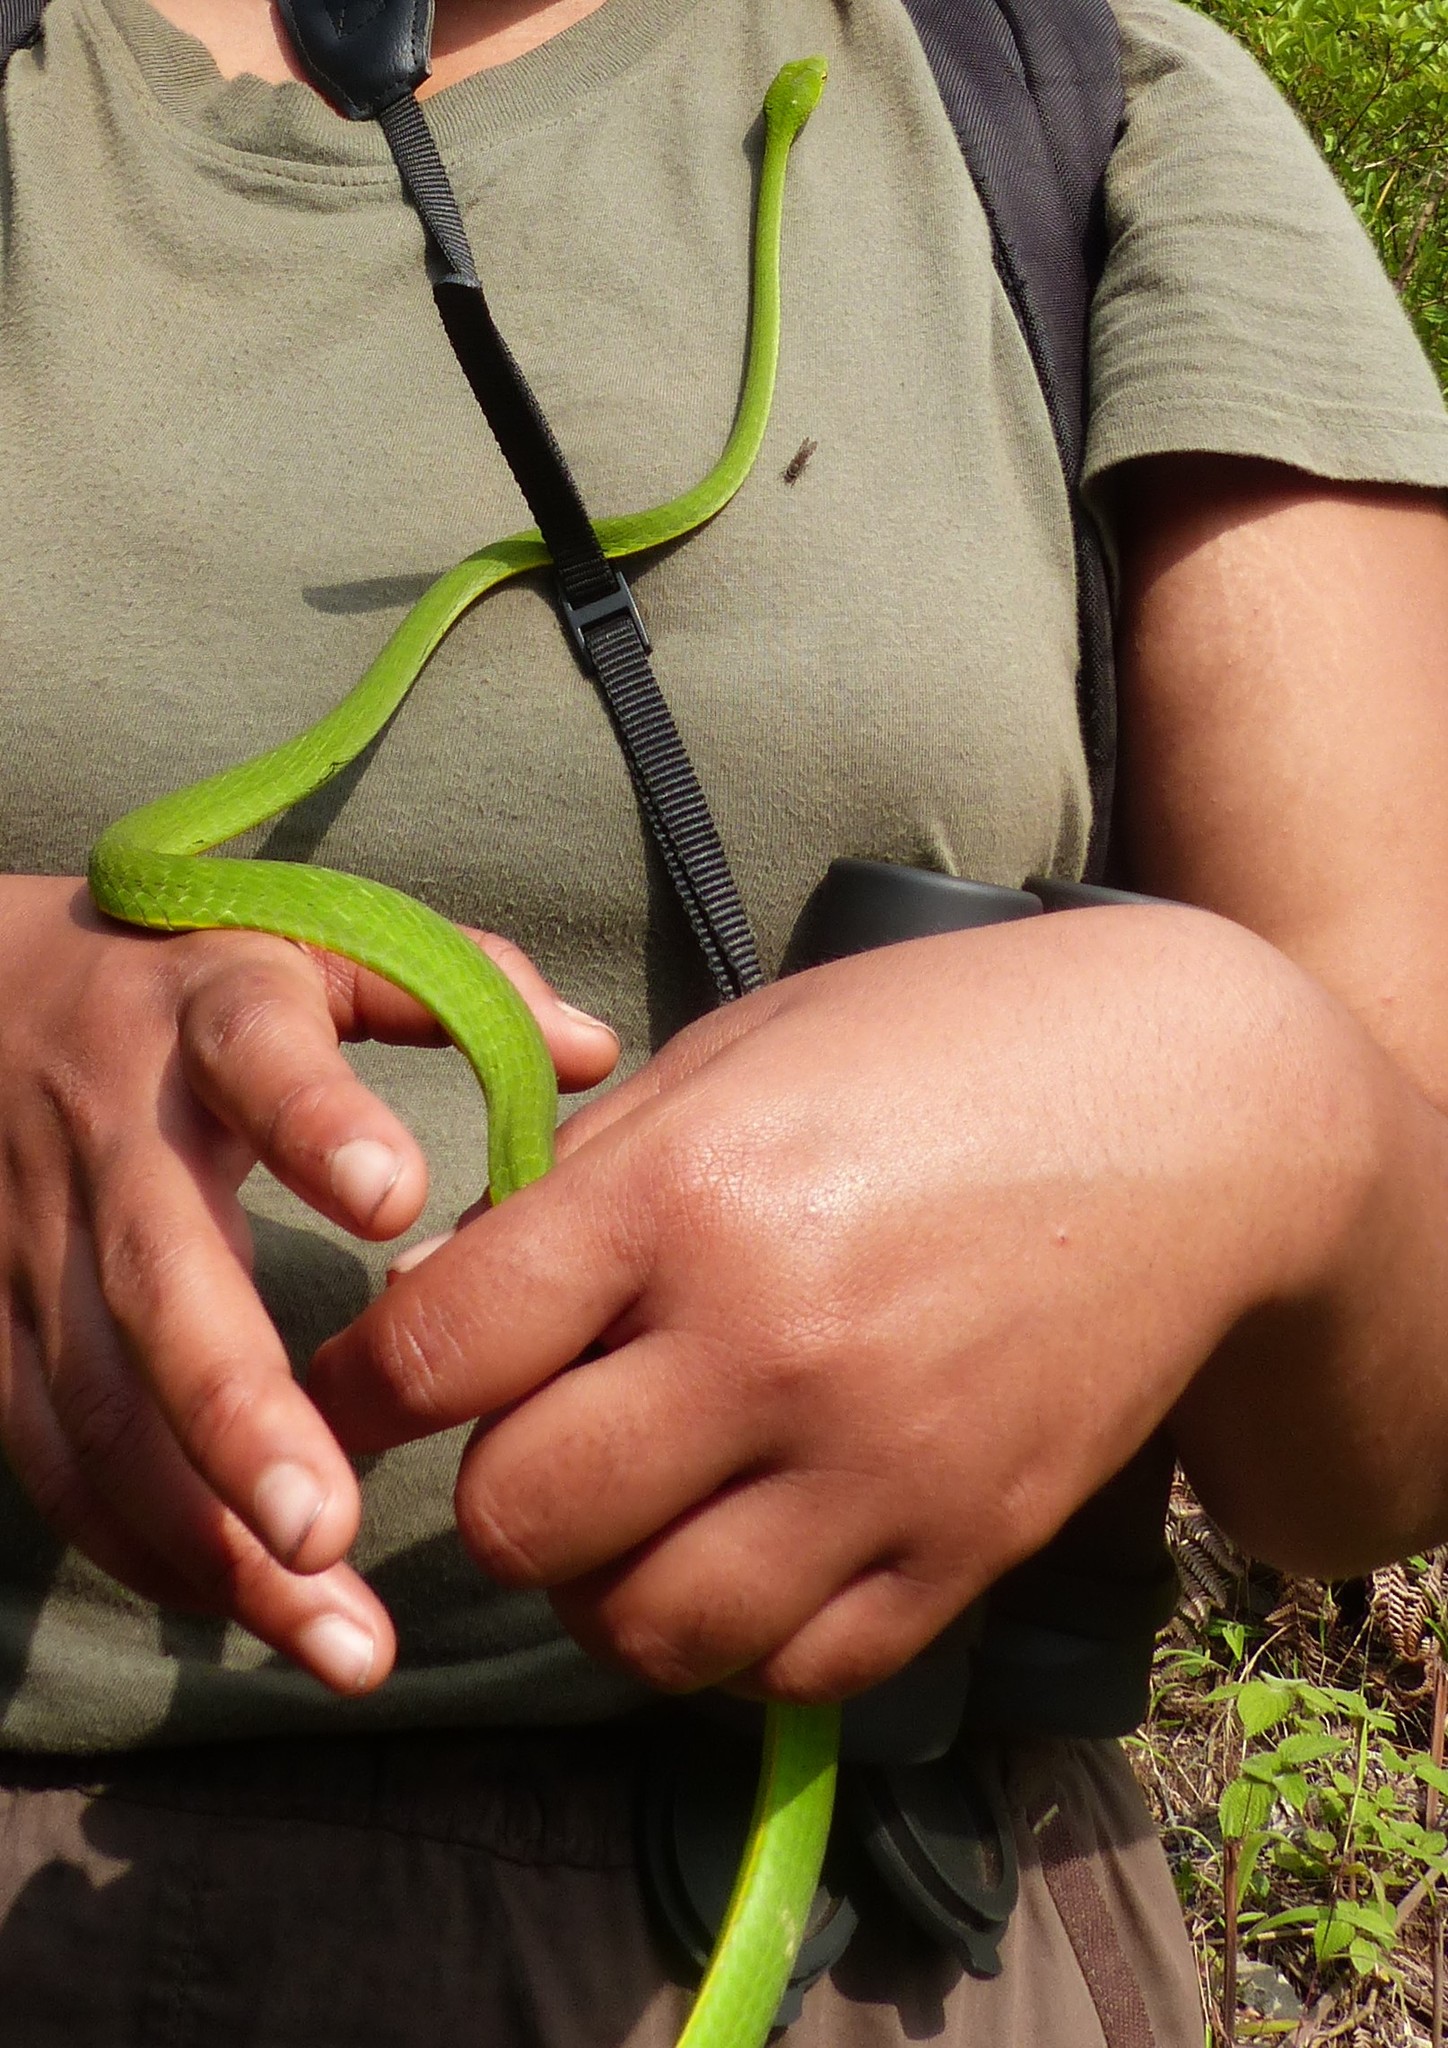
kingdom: Animalia
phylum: Chordata
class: Squamata
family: Colubridae
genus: Ahaetulla
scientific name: Ahaetulla malabarica
